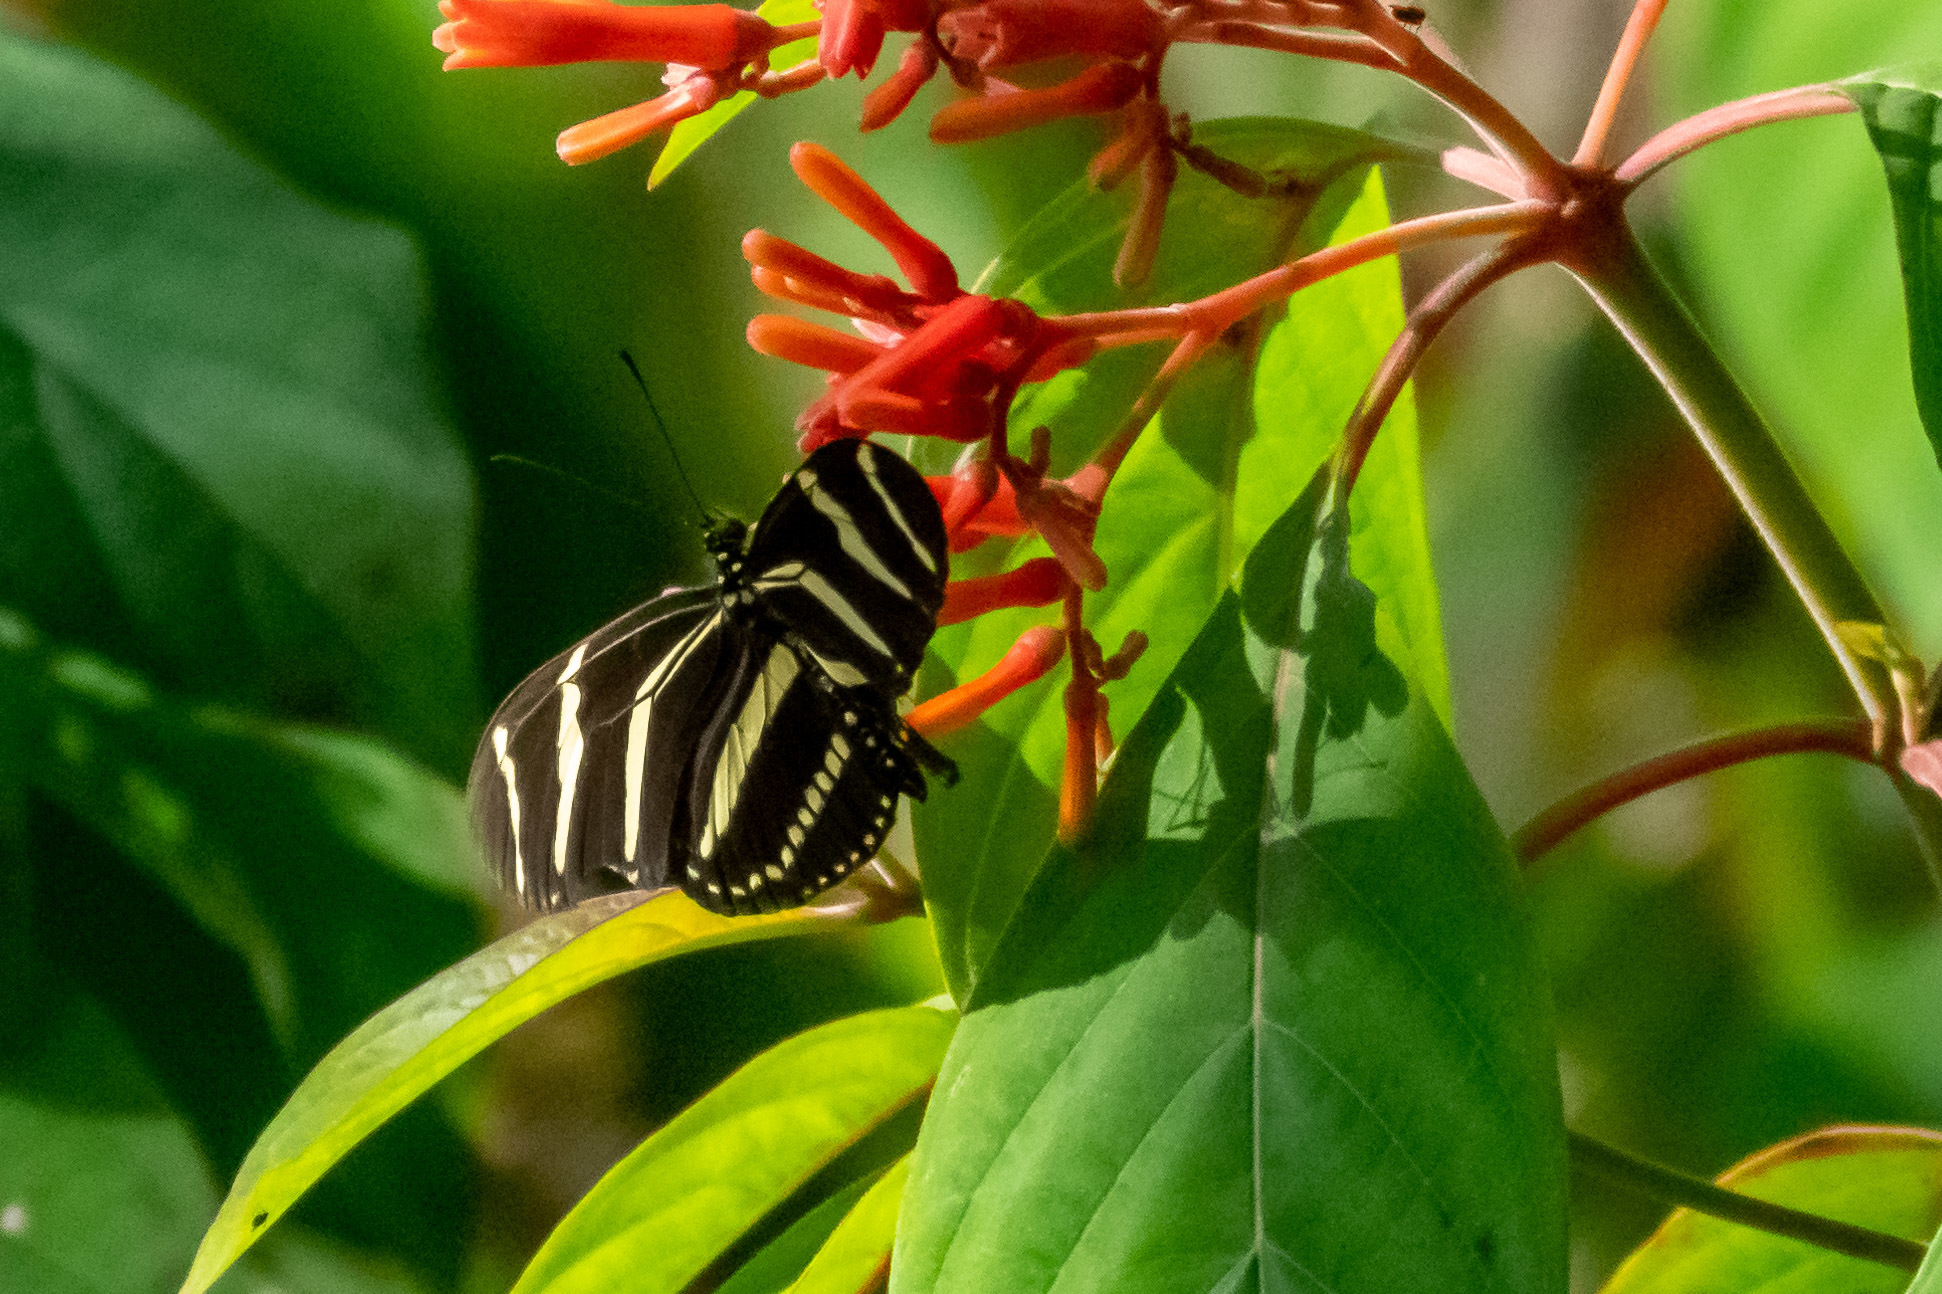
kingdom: Animalia
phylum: Arthropoda
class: Insecta
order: Lepidoptera
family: Nymphalidae
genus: Heliconius
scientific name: Heliconius charithonia
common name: Zebra long wing
